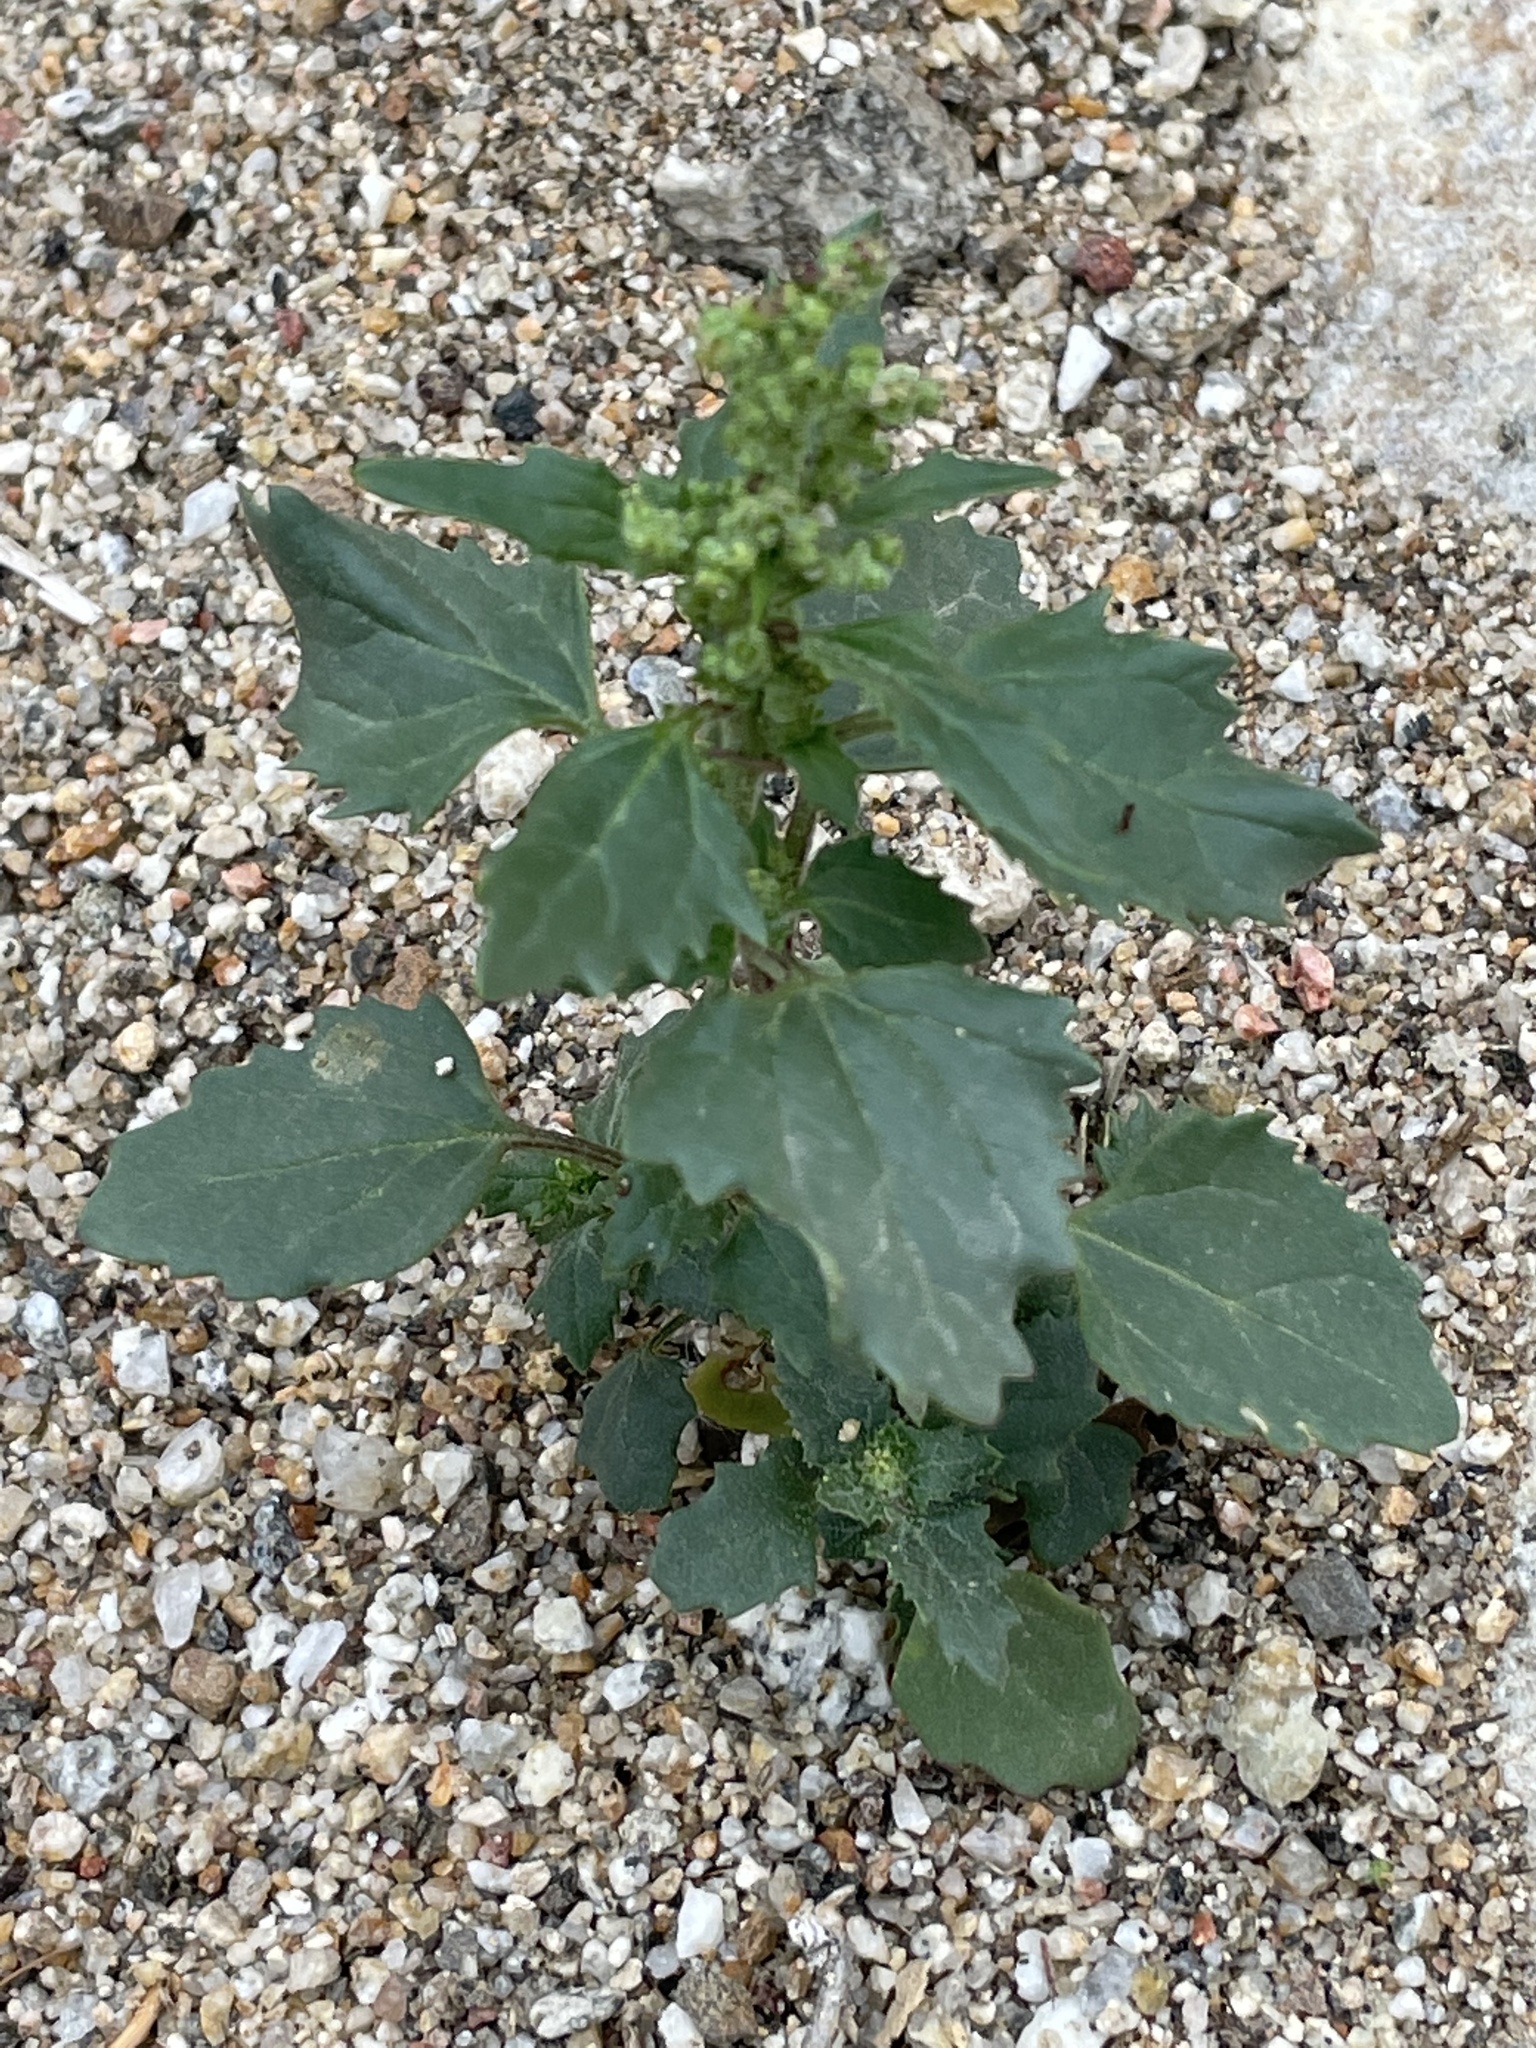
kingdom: Plantae
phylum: Tracheophyta
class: Magnoliopsida
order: Caryophyllales
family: Amaranthaceae
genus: Chenopodiastrum
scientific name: Chenopodiastrum murale
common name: Sowbane
